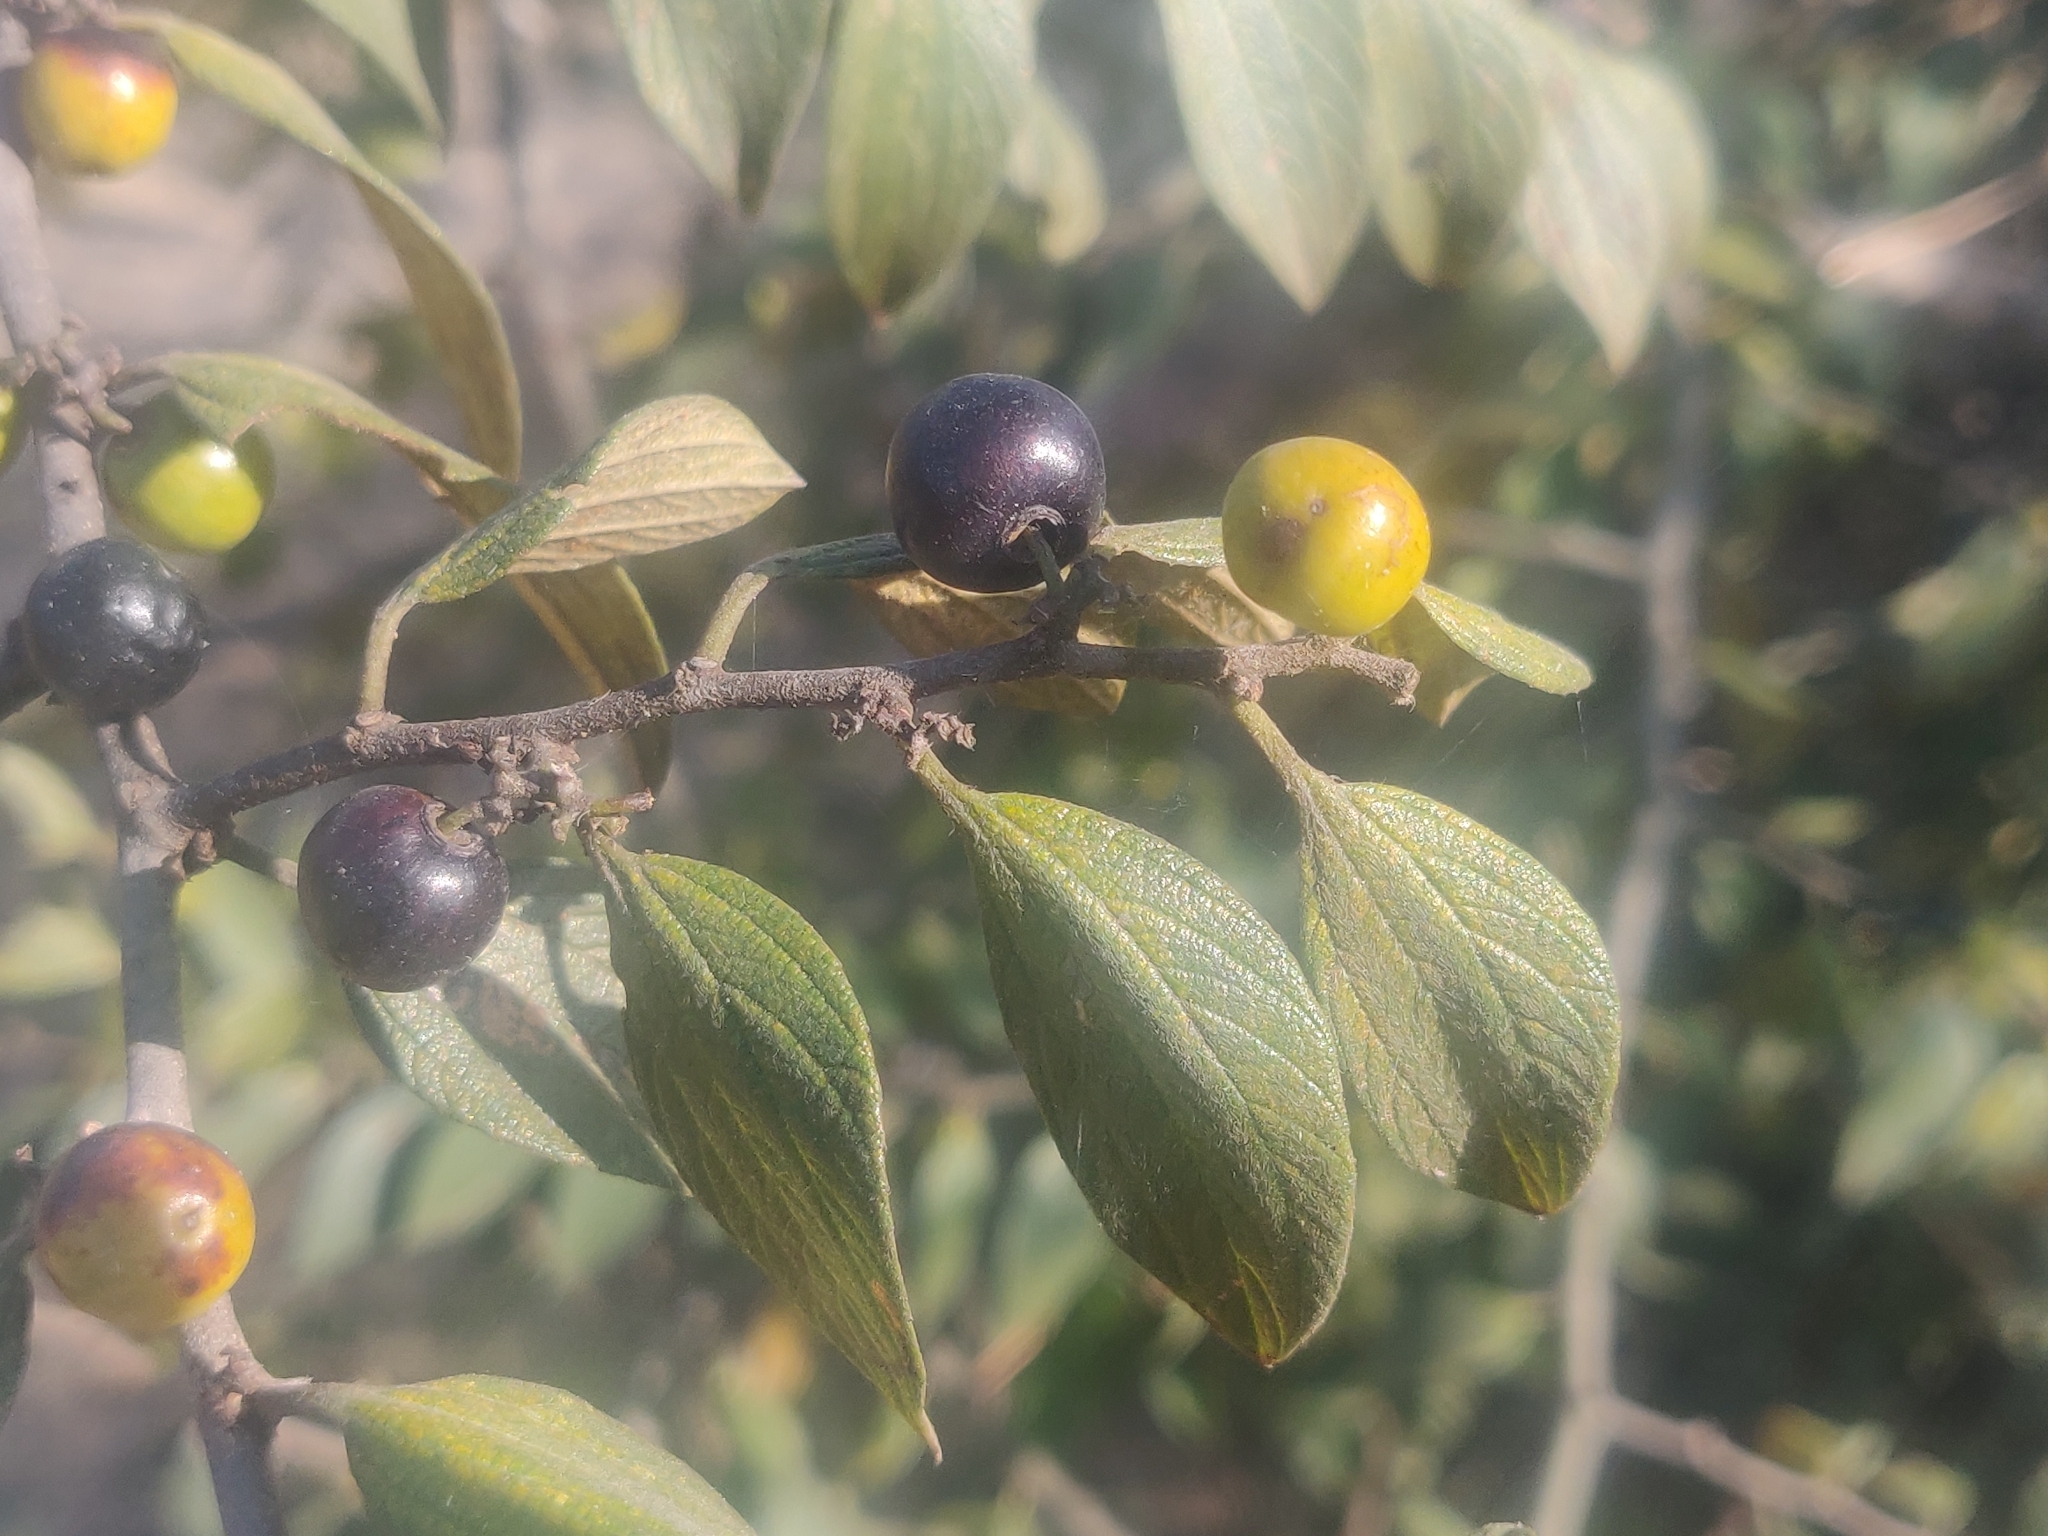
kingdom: Plantae
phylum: Tracheophyta
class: Magnoliopsida
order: Rosales
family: Rhamnaceae
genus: Ziziphus
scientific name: Ziziphus oenopolia
